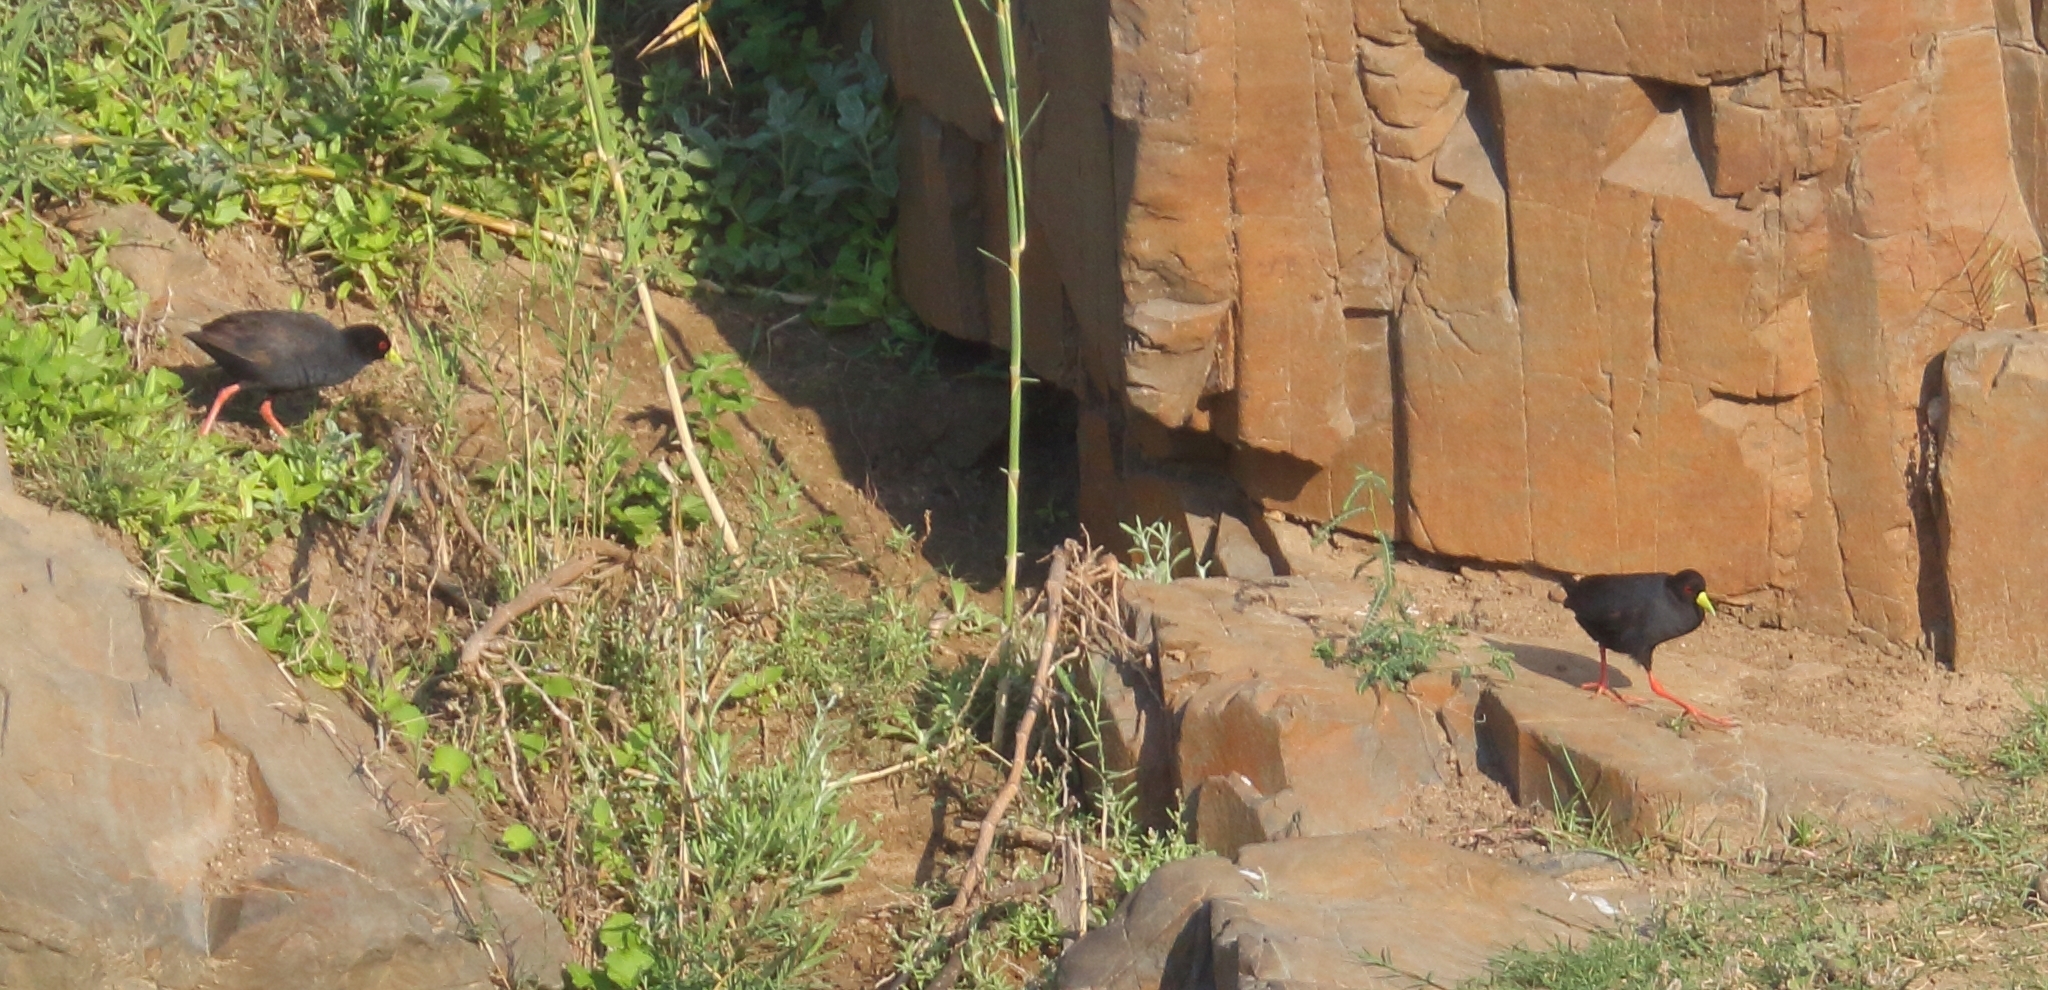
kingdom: Animalia
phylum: Chordata
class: Aves
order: Gruiformes
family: Rallidae
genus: Amaurornis
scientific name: Amaurornis flavirostra
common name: Black crake
